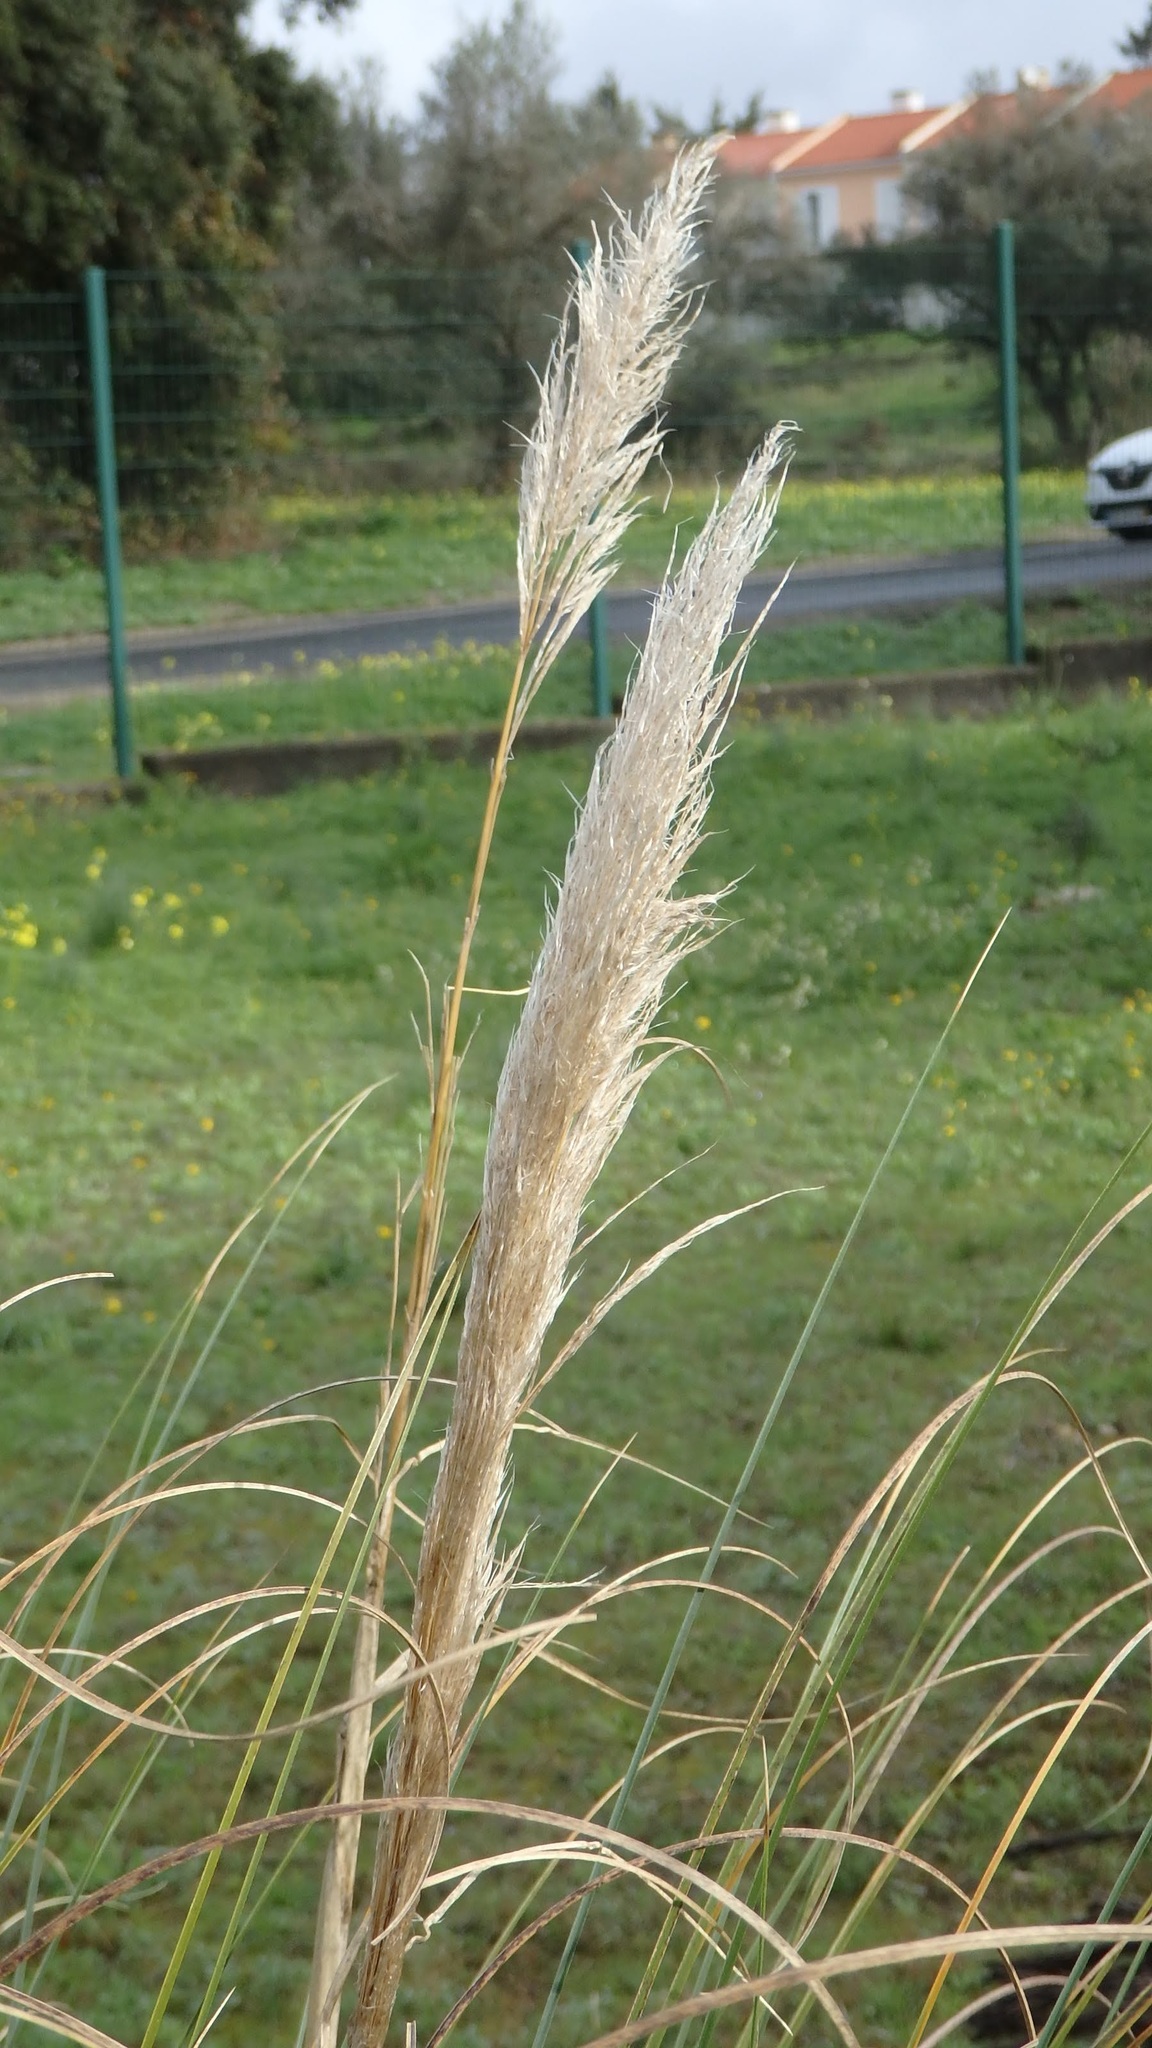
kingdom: Plantae
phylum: Tracheophyta
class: Liliopsida
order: Poales
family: Poaceae
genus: Cortaderia
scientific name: Cortaderia selloana
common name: Uruguayan pampas grass
